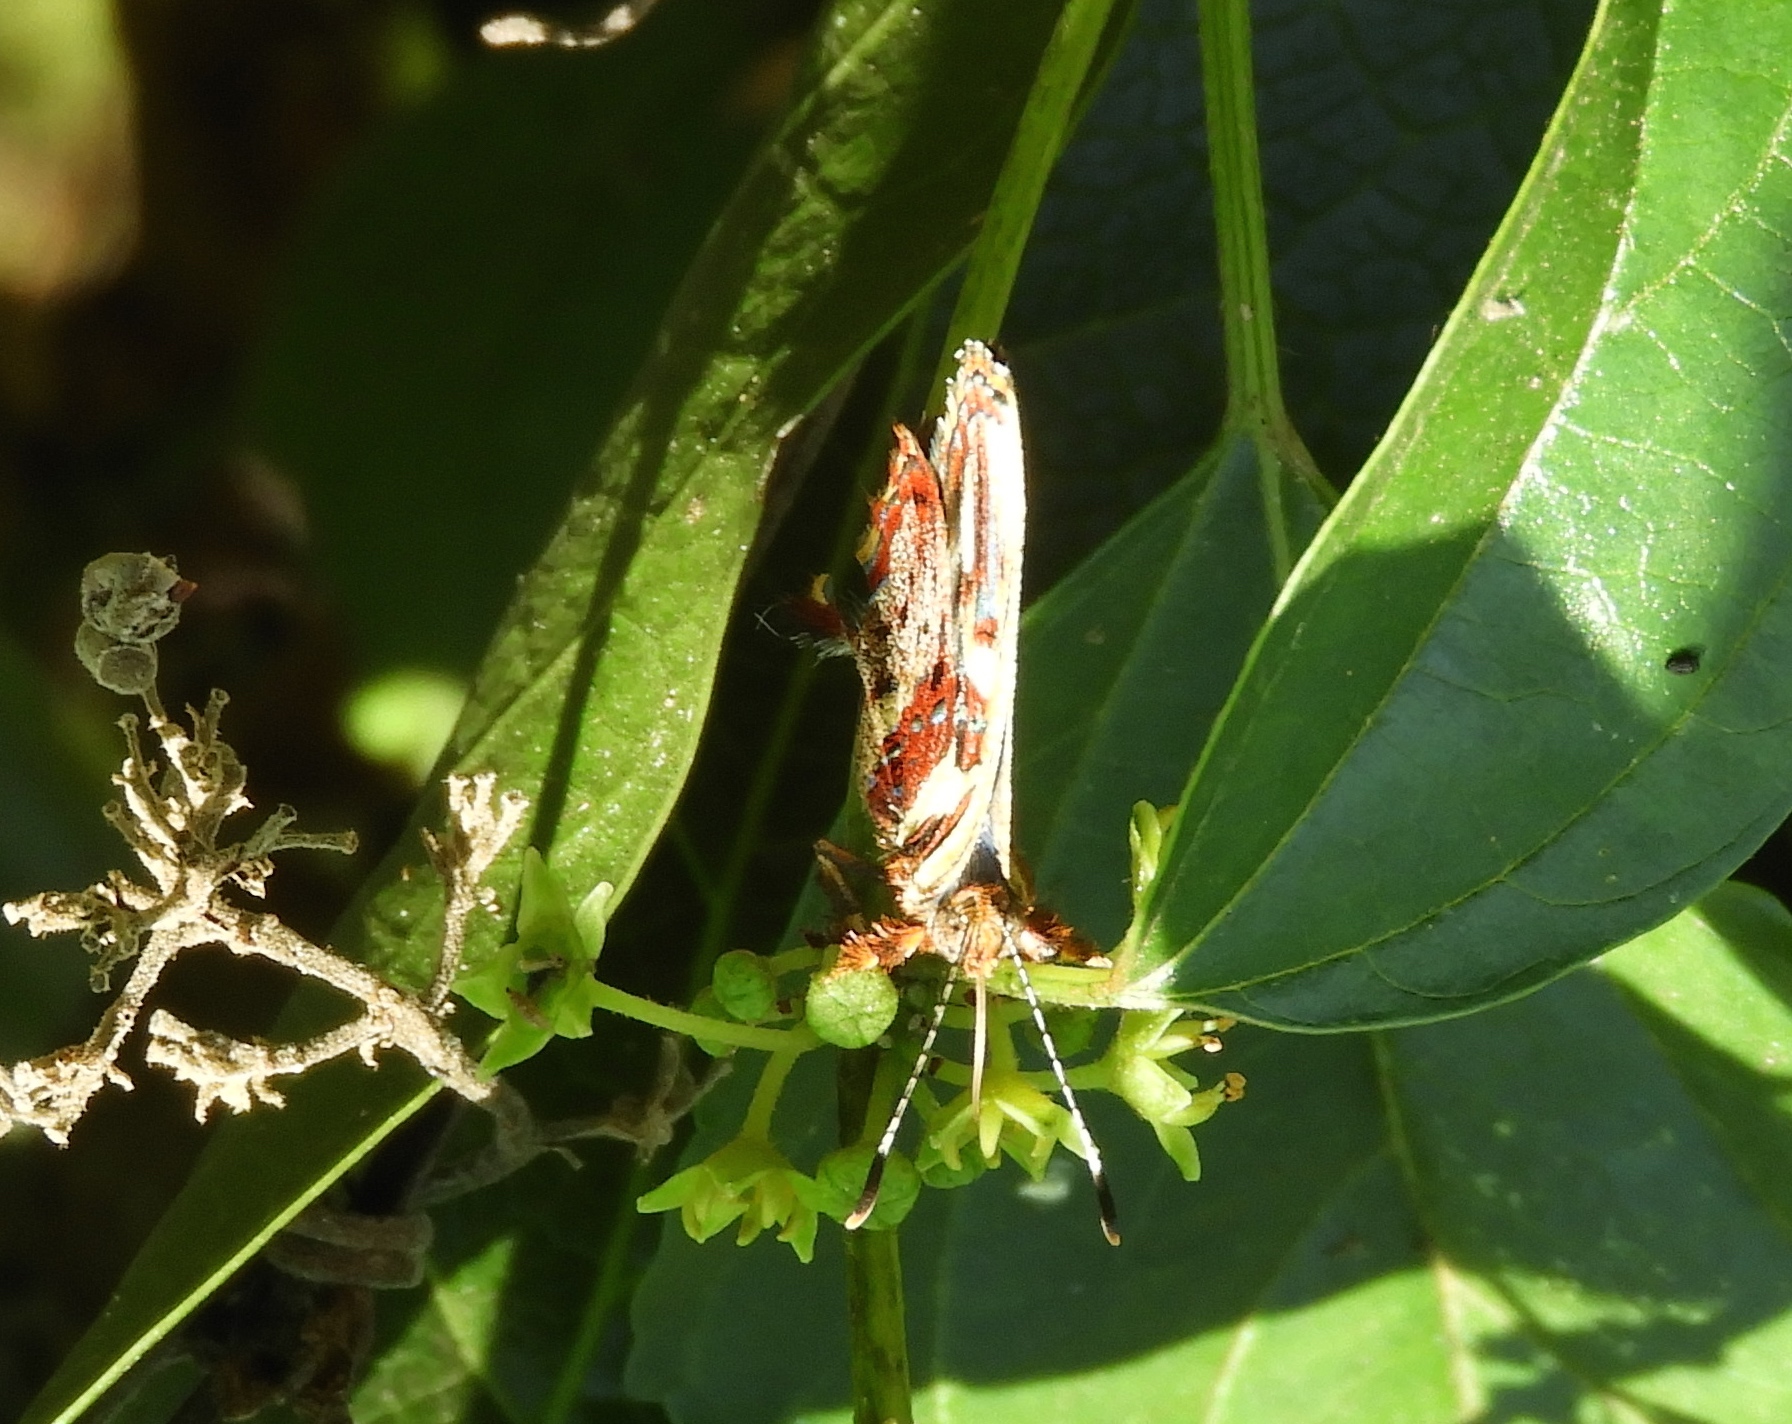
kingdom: Animalia
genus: Anteros
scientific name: Anteros carausius
